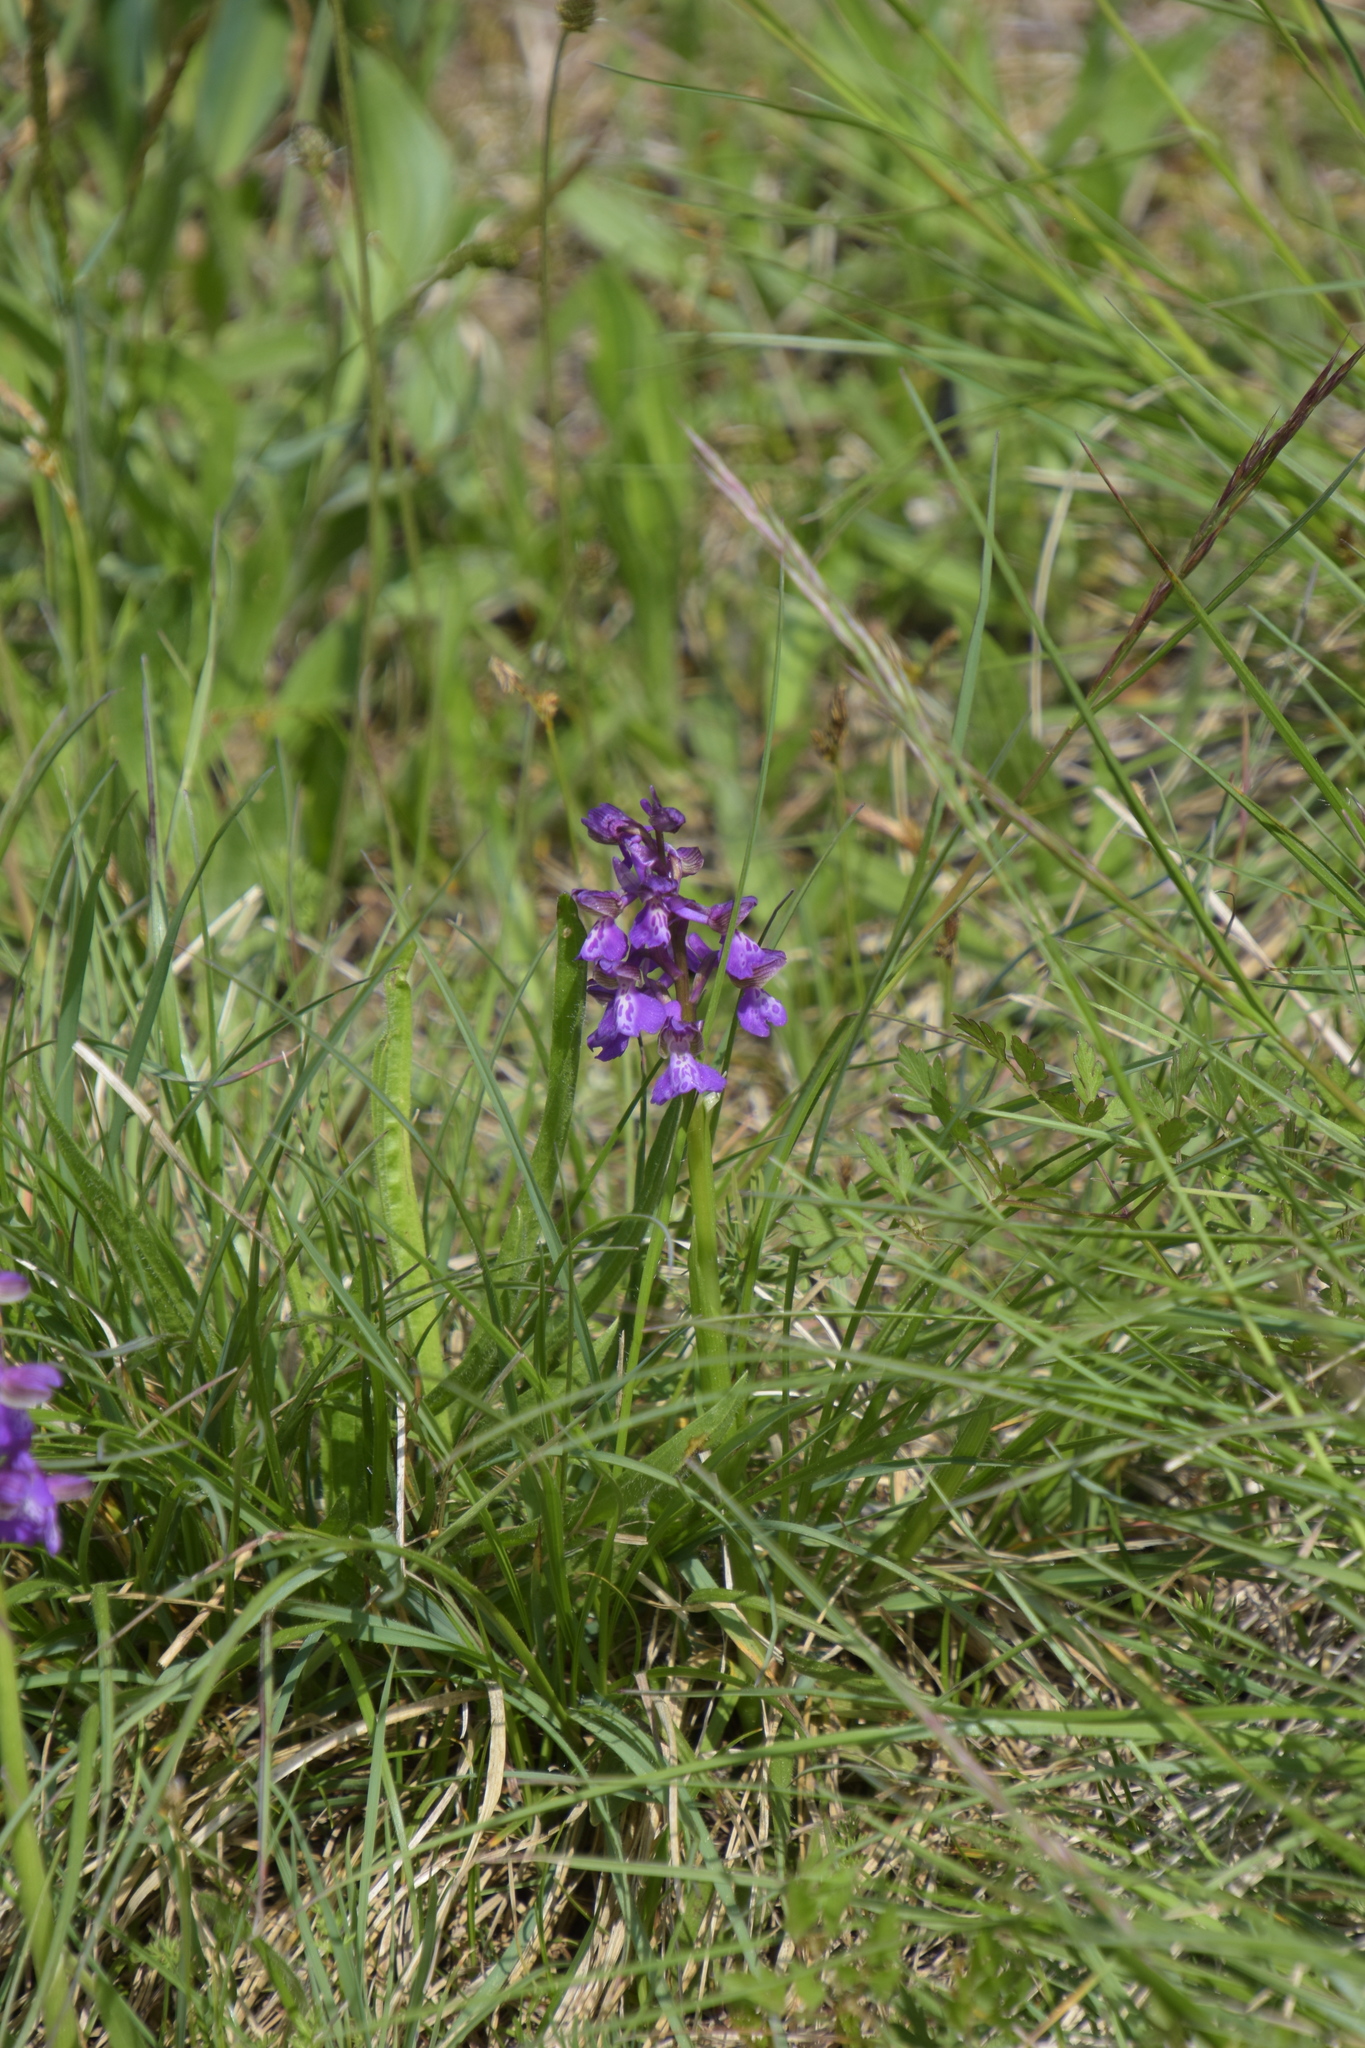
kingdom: Plantae
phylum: Tracheophyta
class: Liliopsida
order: Asparagales
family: Orchidaceae
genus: Anacamptis
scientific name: Anacamptis morio
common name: Green-winged orchid
